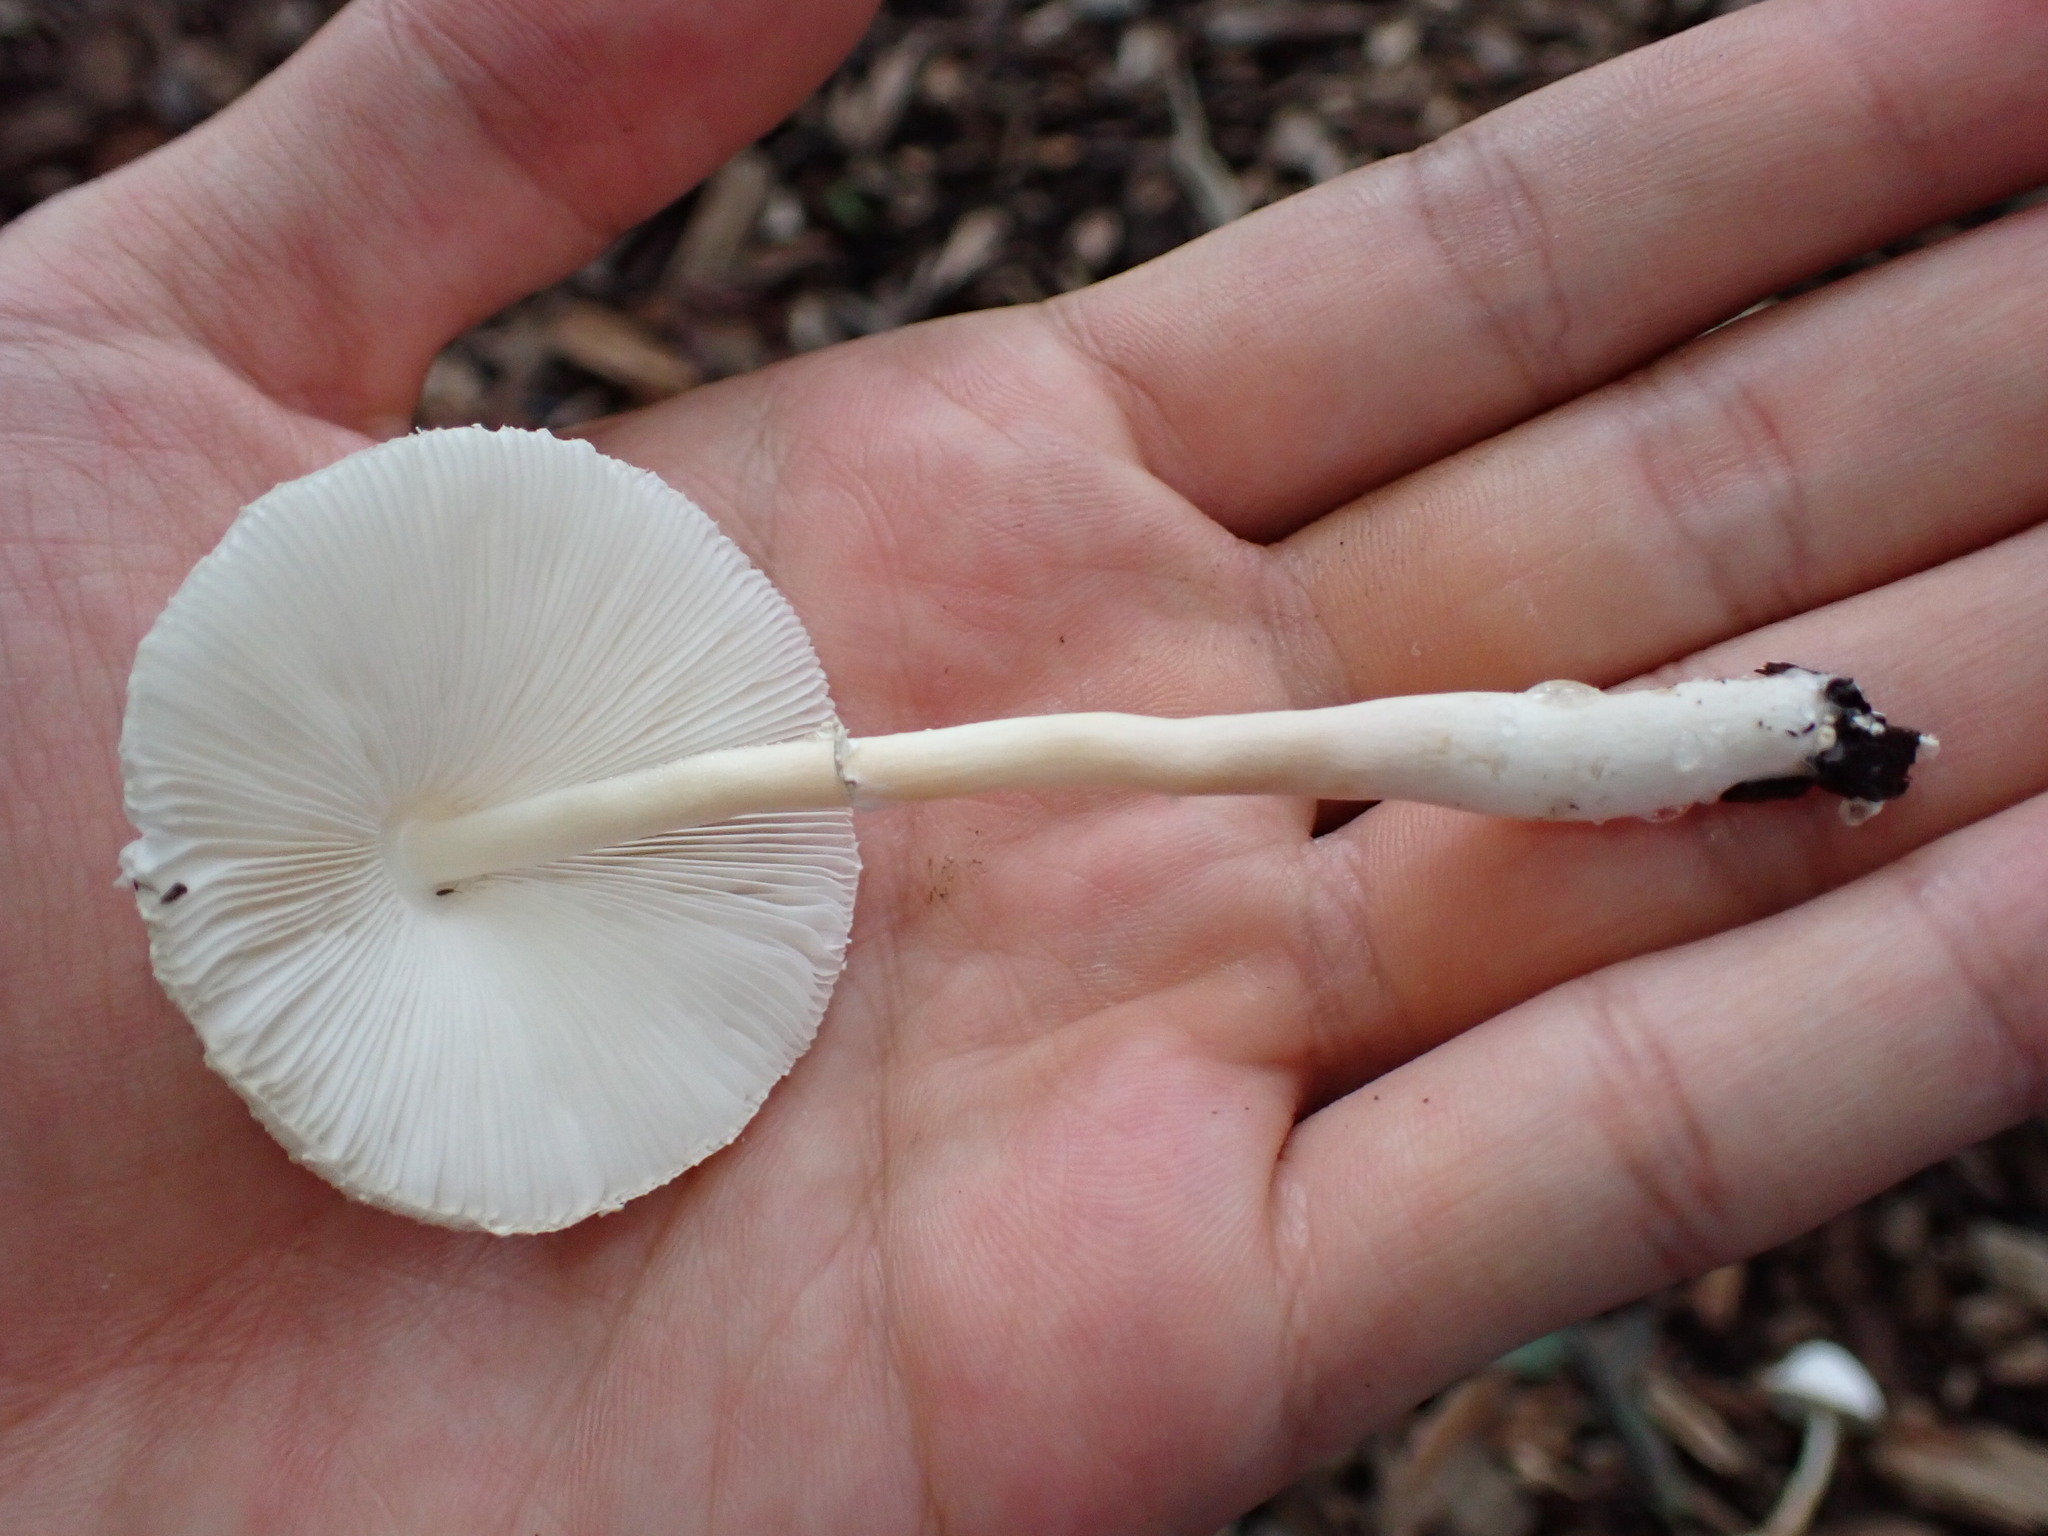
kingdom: Fungi
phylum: Basidiomycota
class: Agaricomycetes
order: Agaricales
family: Agaricaceae
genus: Leucocoprinus
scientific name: Leucocoprinus cepistipes
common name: Onion-stalk parasol
